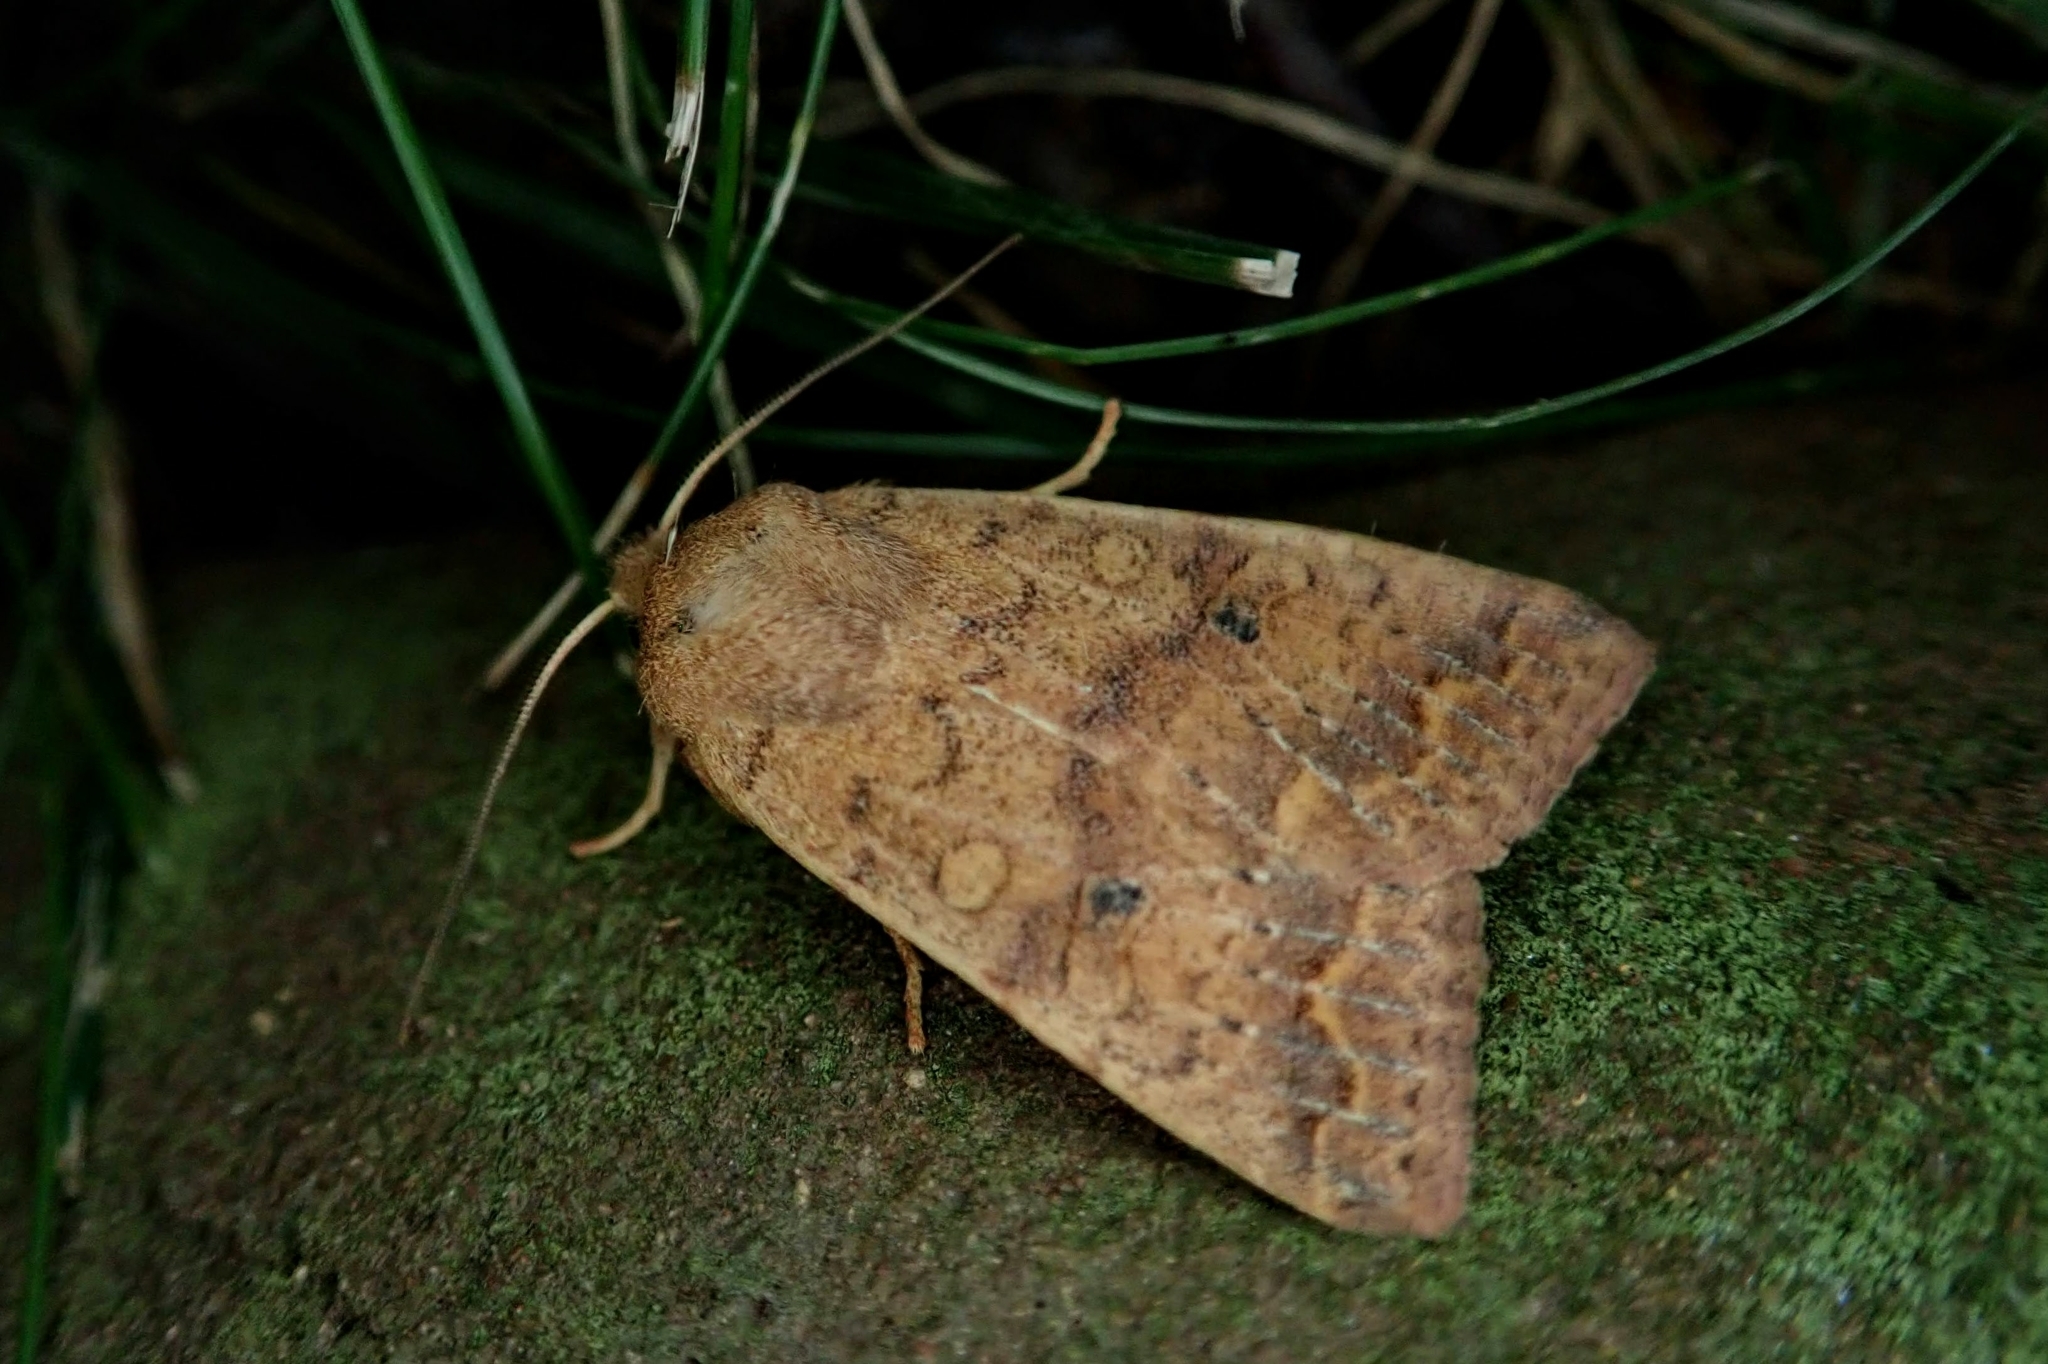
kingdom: Animalia
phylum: Arthropoda
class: Insecta
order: Lepidoptera
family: Noctuidae
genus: Agrochola
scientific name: Agrochola bicolorago
